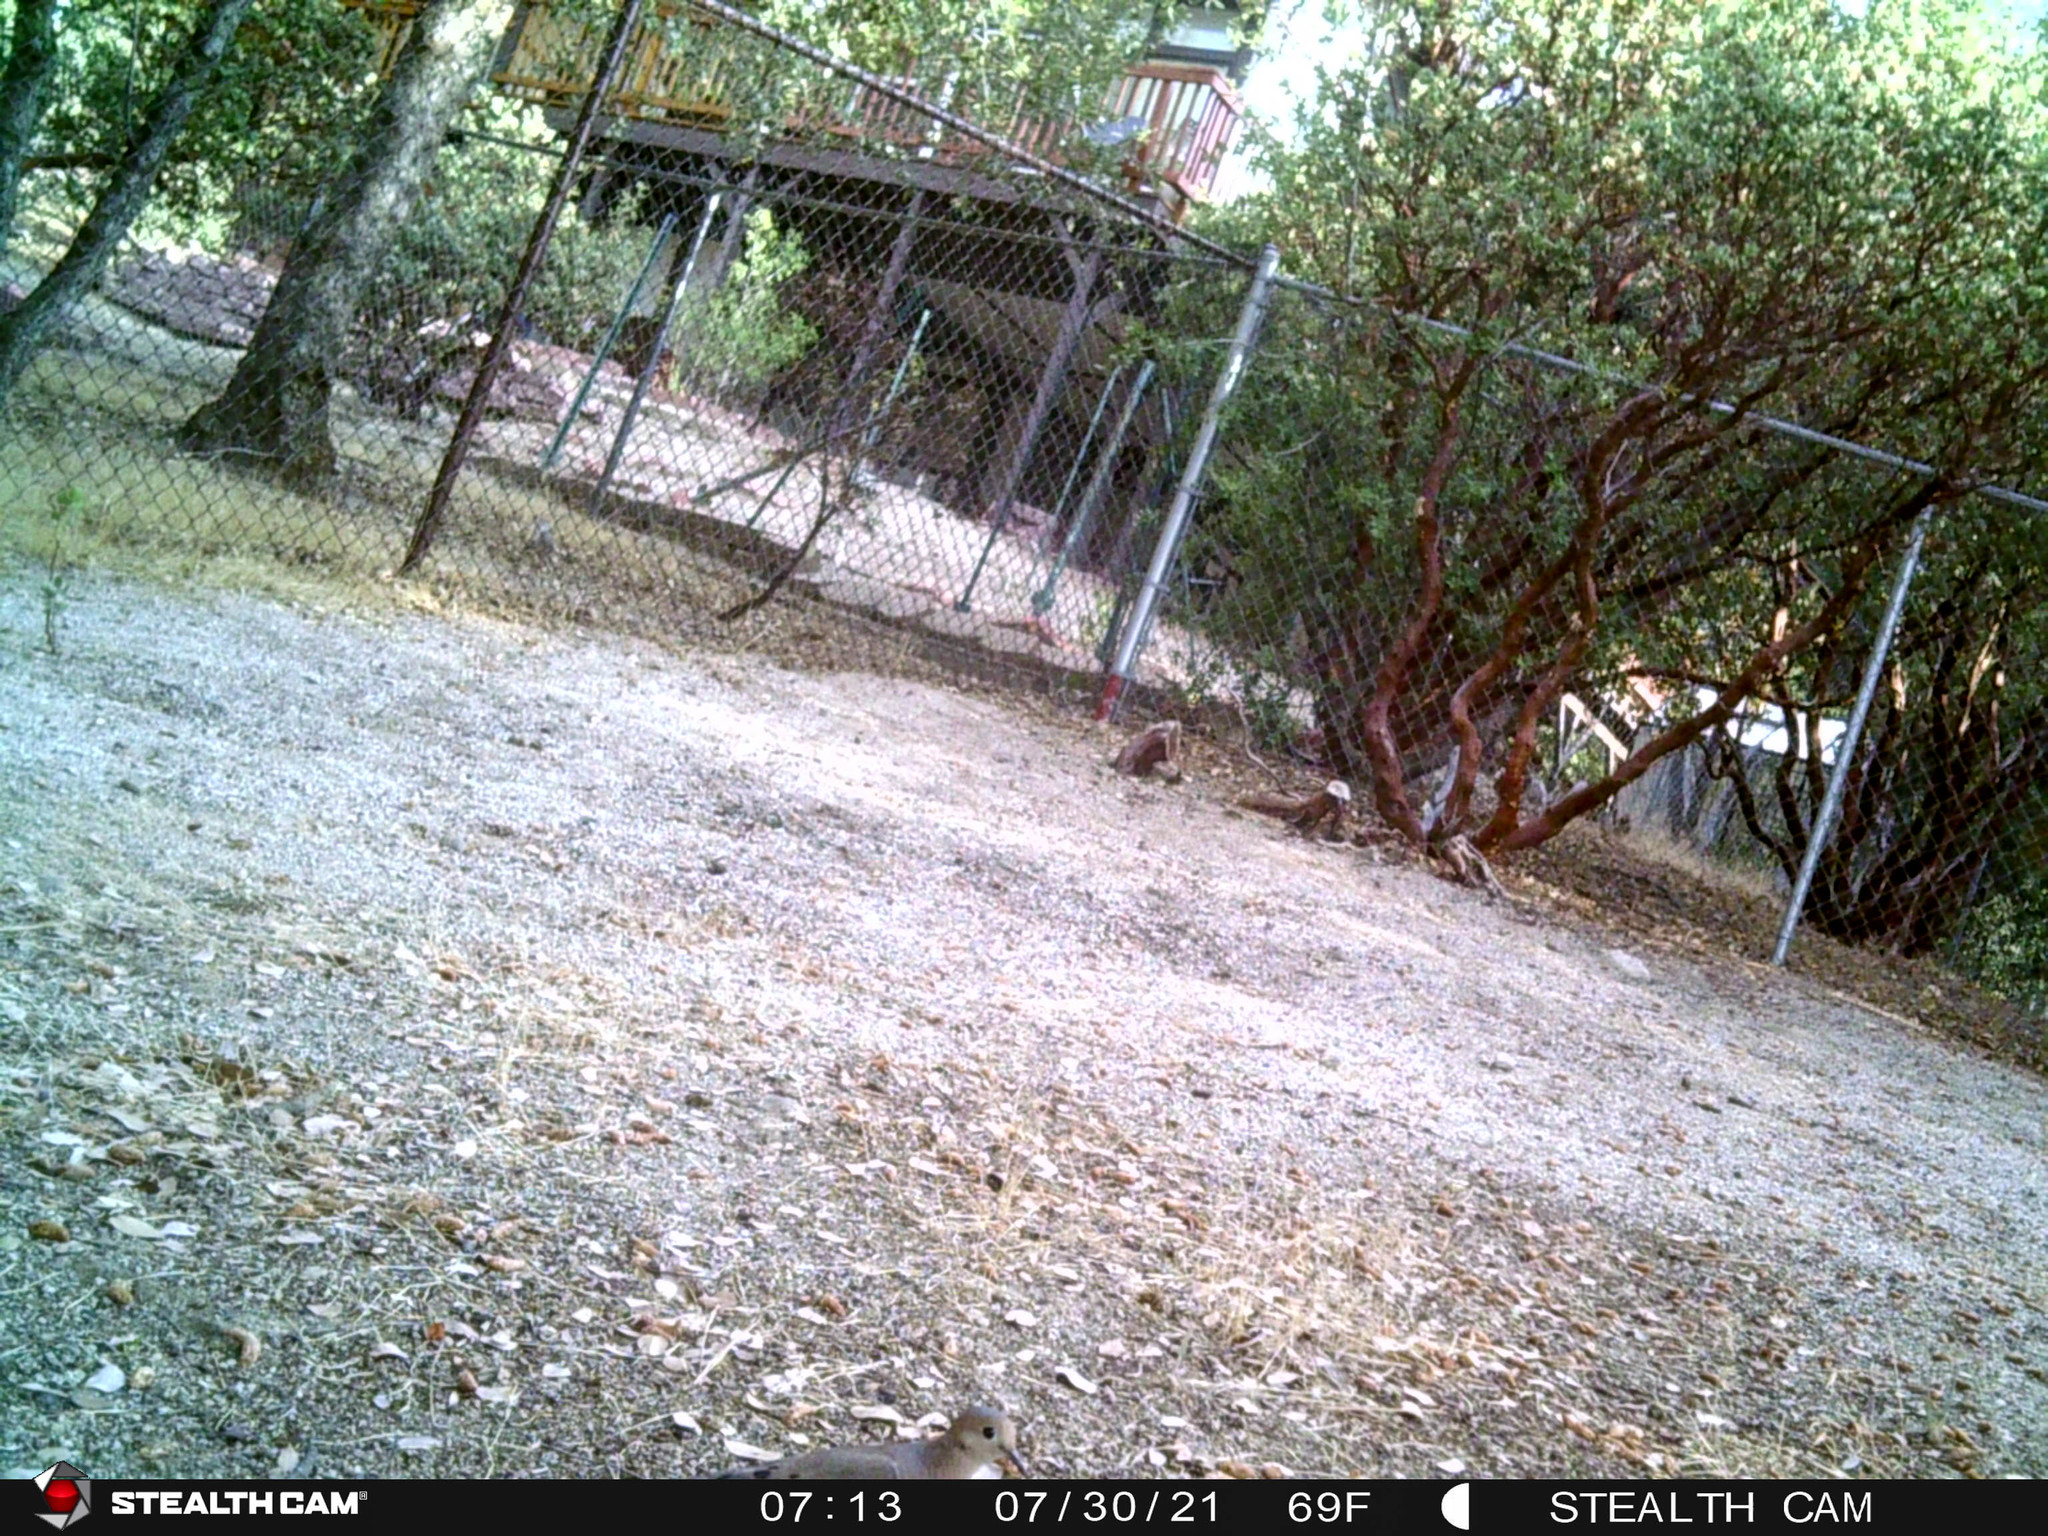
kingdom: Animalia
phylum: Chordata
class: Aves
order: Columbiformes
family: Columbidae
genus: Zenaida
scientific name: Zenaida macroura
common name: Mourning dove
